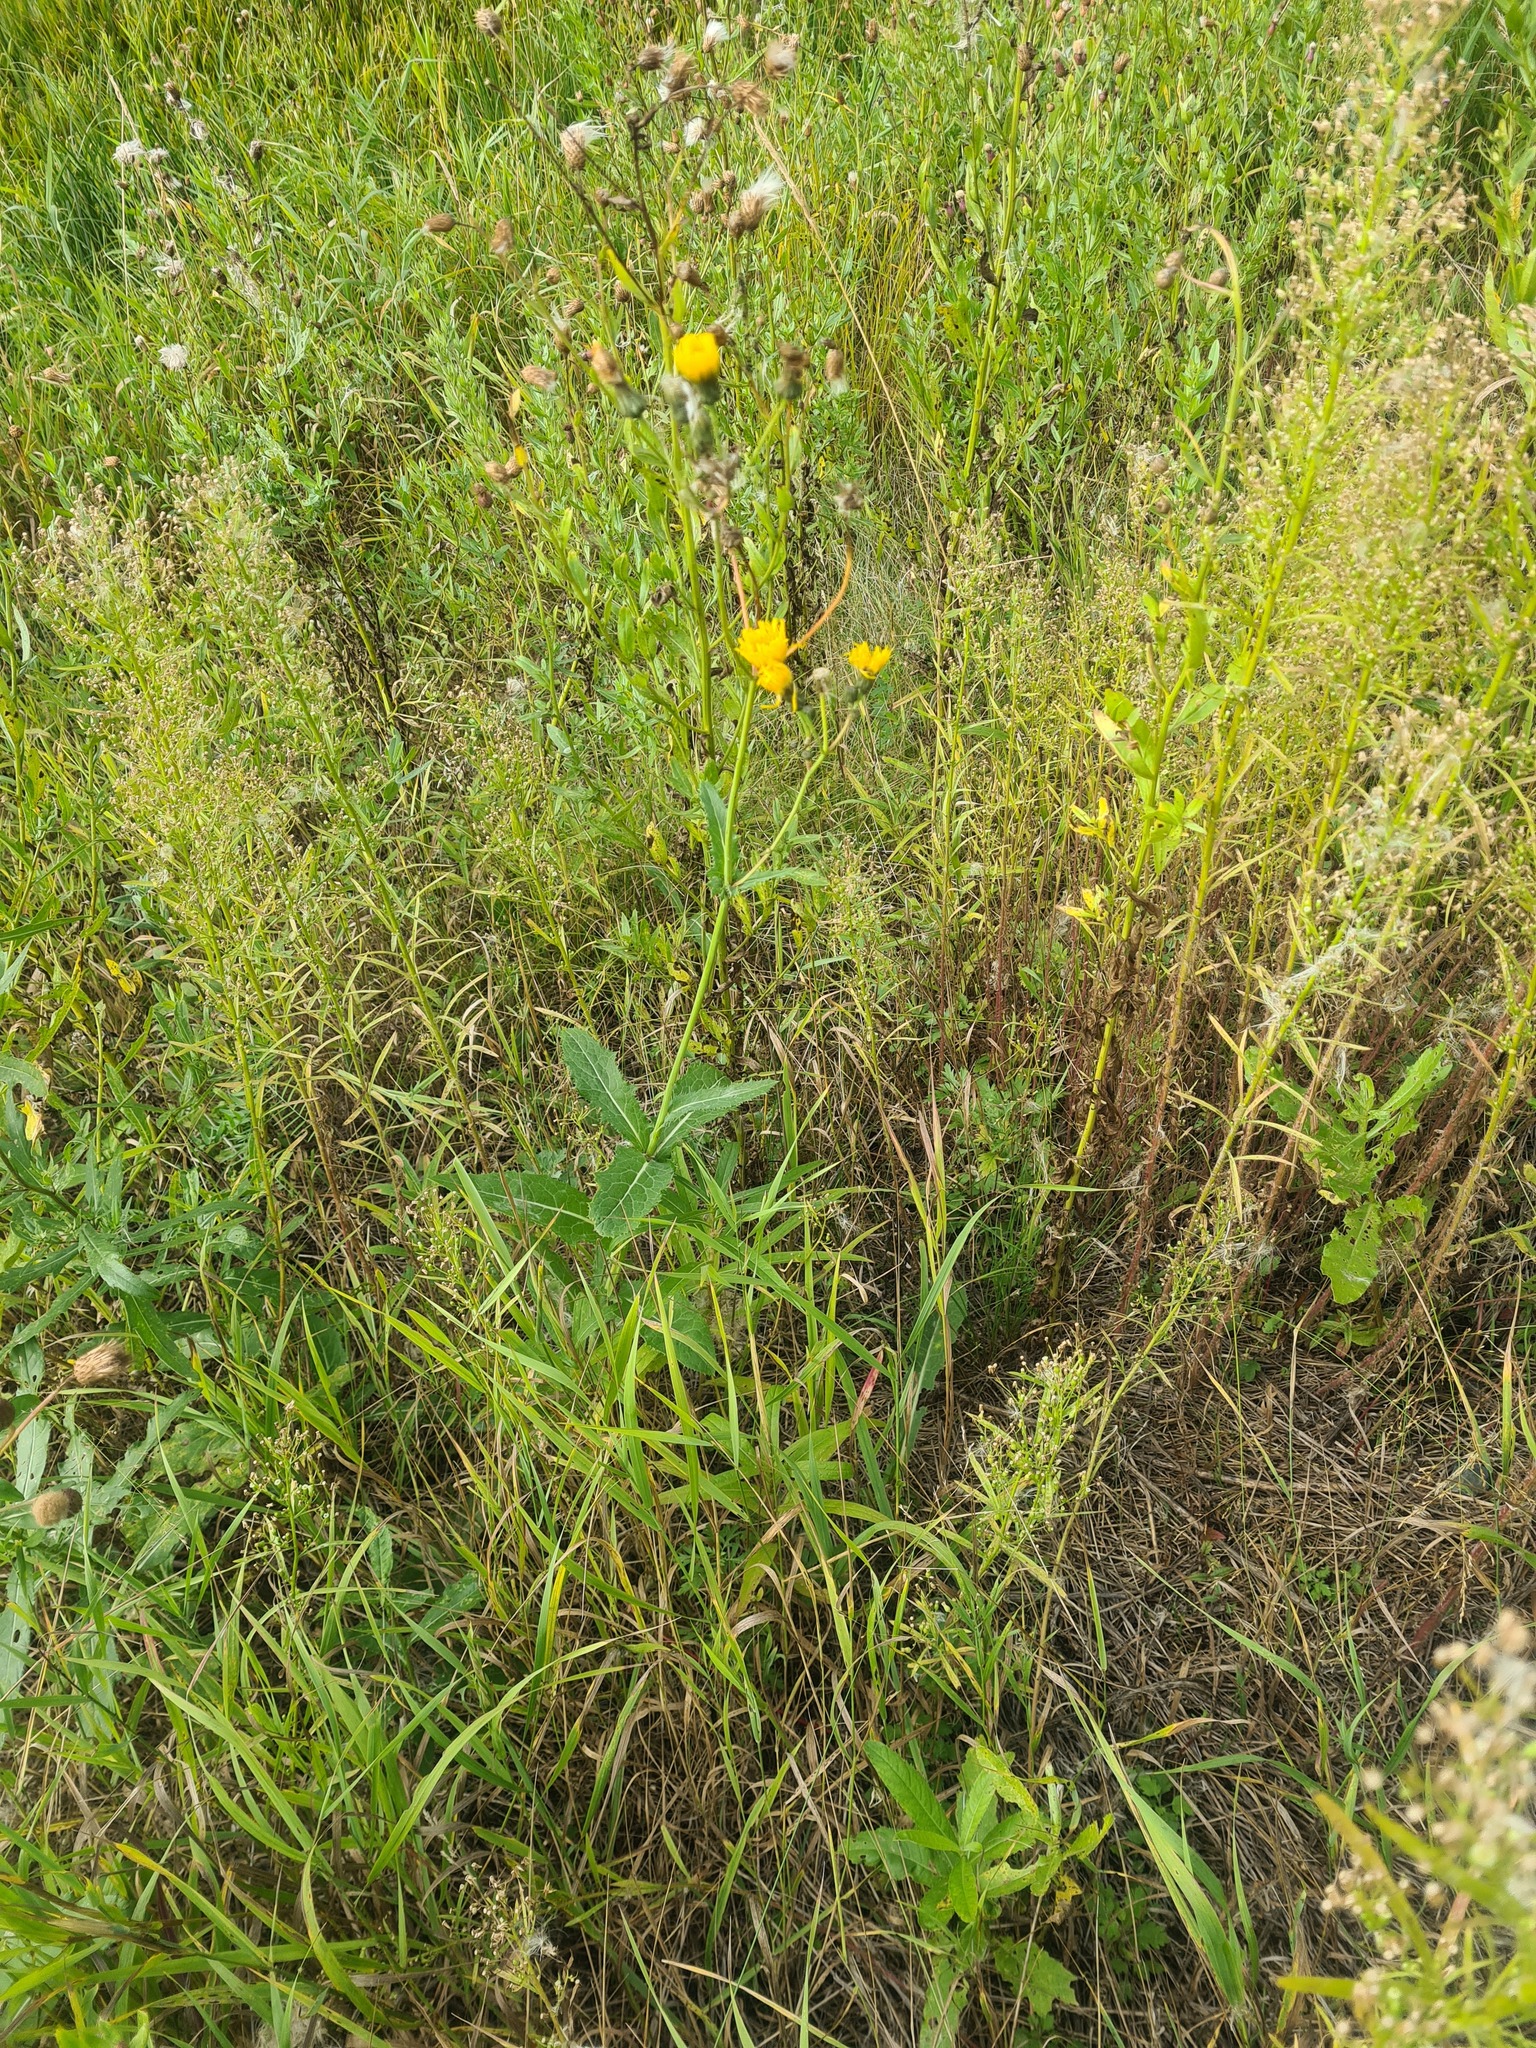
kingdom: Plantae
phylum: Tracheophyta
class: Magnoliopsida
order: Asterales
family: Asteraceae
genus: Sonchus
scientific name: Sonchus arvensis
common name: Perennial sow-thistle
